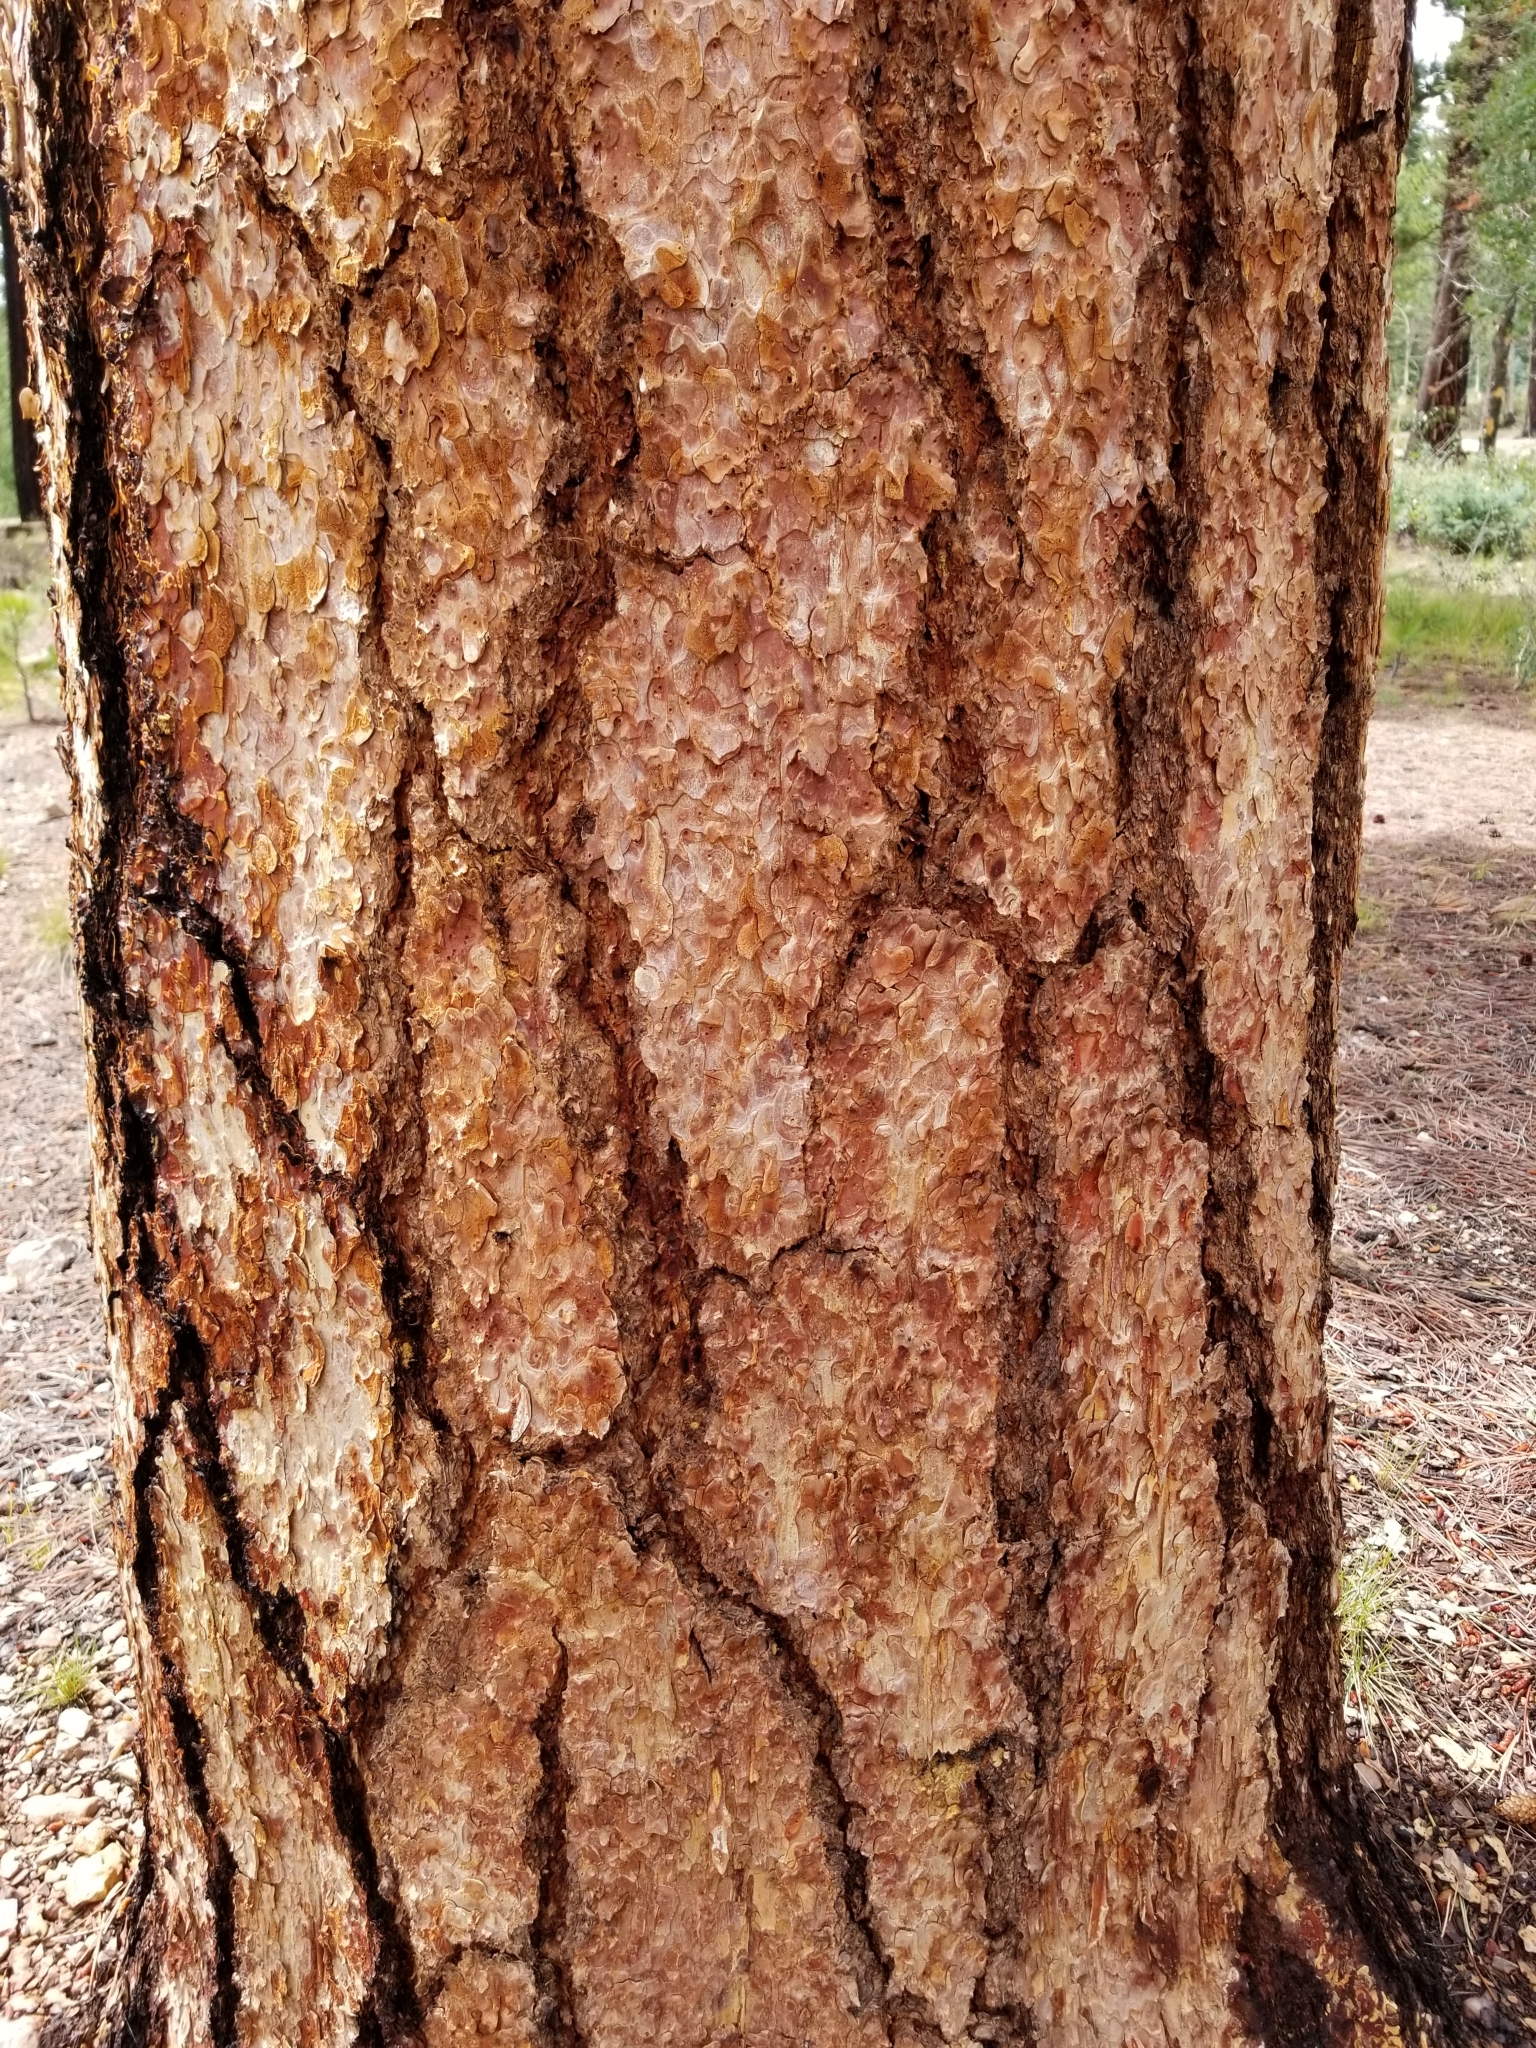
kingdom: Plantae
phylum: Tracheophyta
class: Pinopsida
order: Pinales
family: Pinaceae
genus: Pinus
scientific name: Pinus ponderosa
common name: Western yellow-pine
